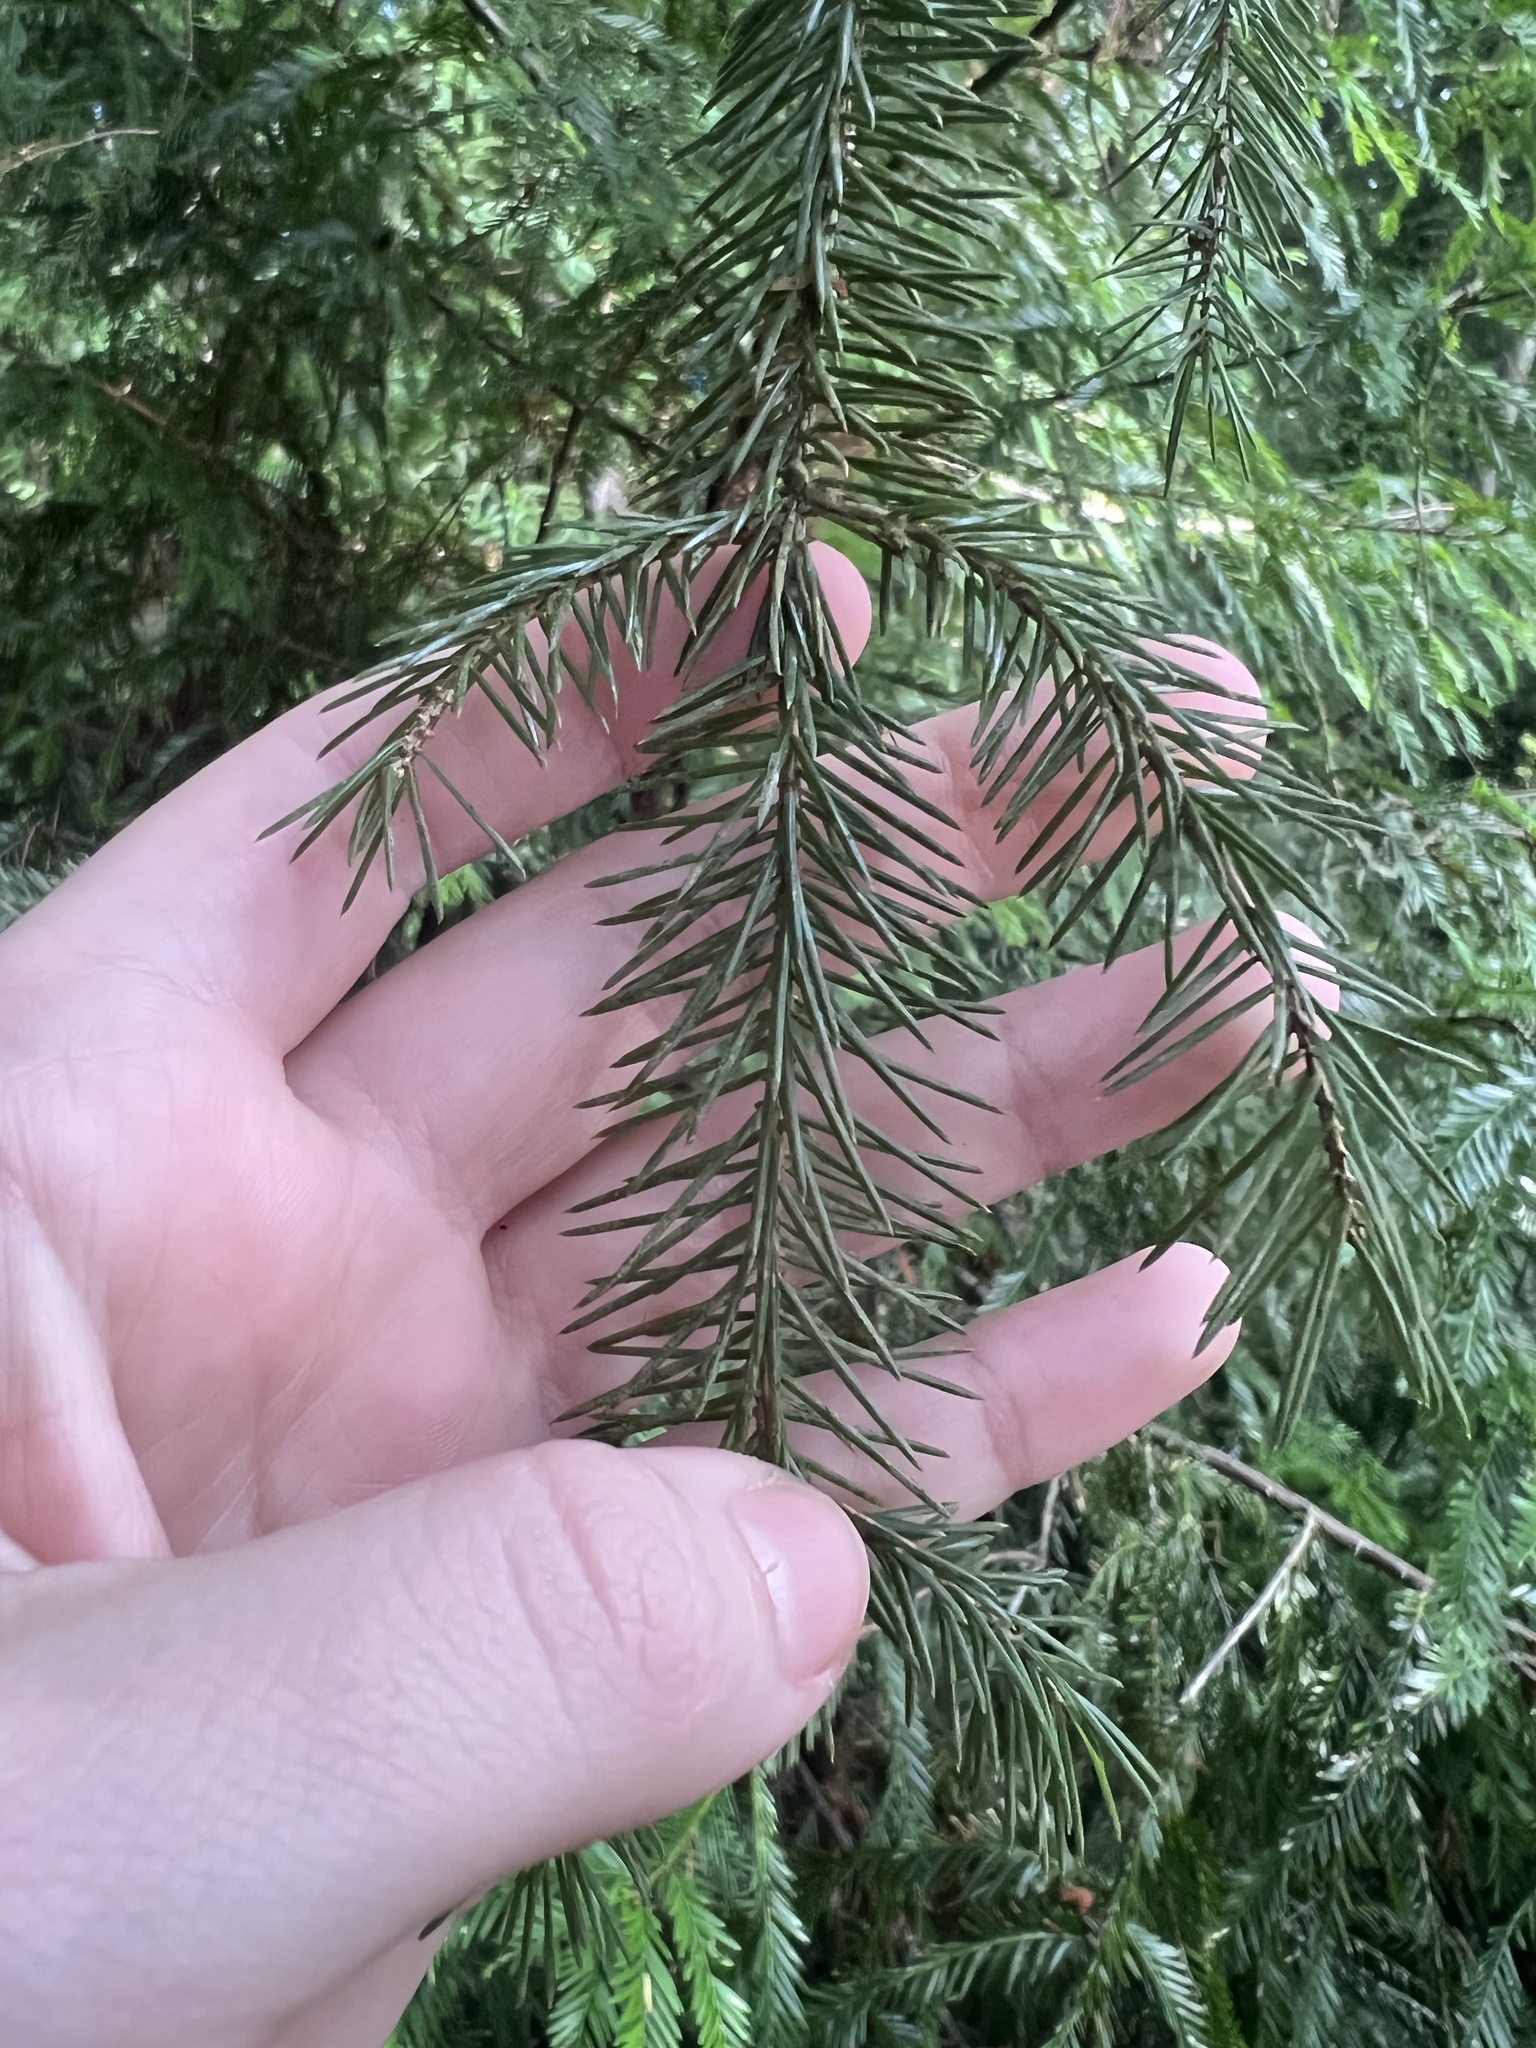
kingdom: Plantae
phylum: Tracheophyta
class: Pinopsida
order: Pinales
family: Pinaceae
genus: Picea
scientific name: Picea sitchensis
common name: Sitka spruce
